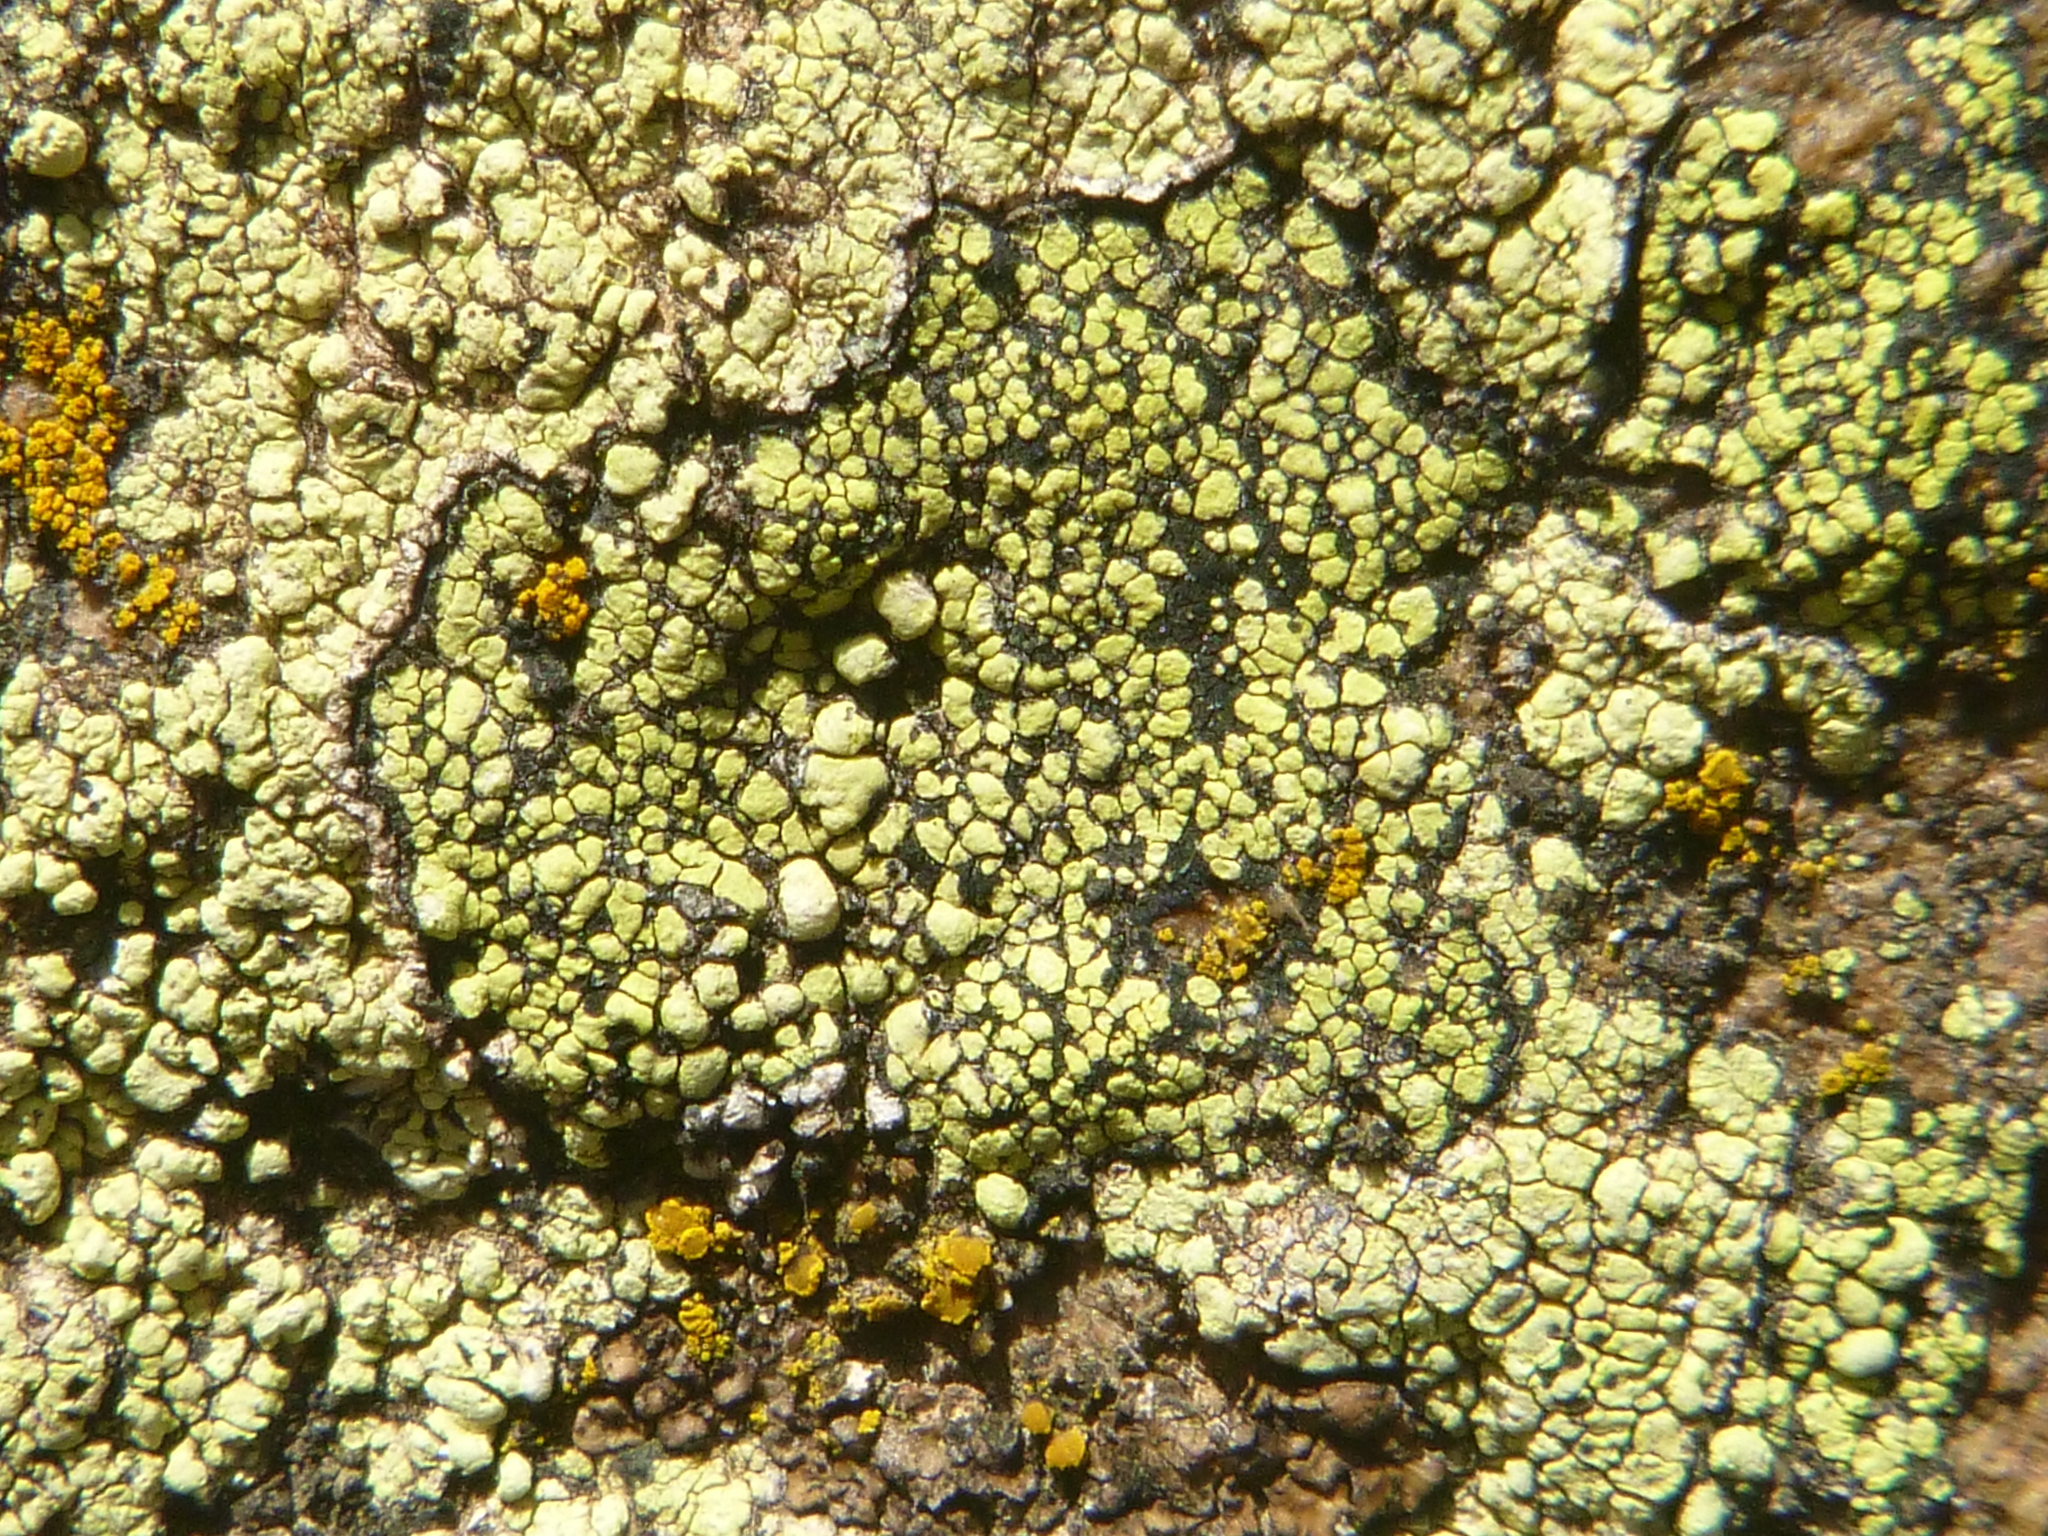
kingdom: Fungi
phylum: Ascomycota
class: Lecanoromycetes
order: Rhizocarpales
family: Rhizocarpaceae
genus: Rhizocarpon
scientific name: Rhizocarpon geographicum
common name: Yellow map lichen
